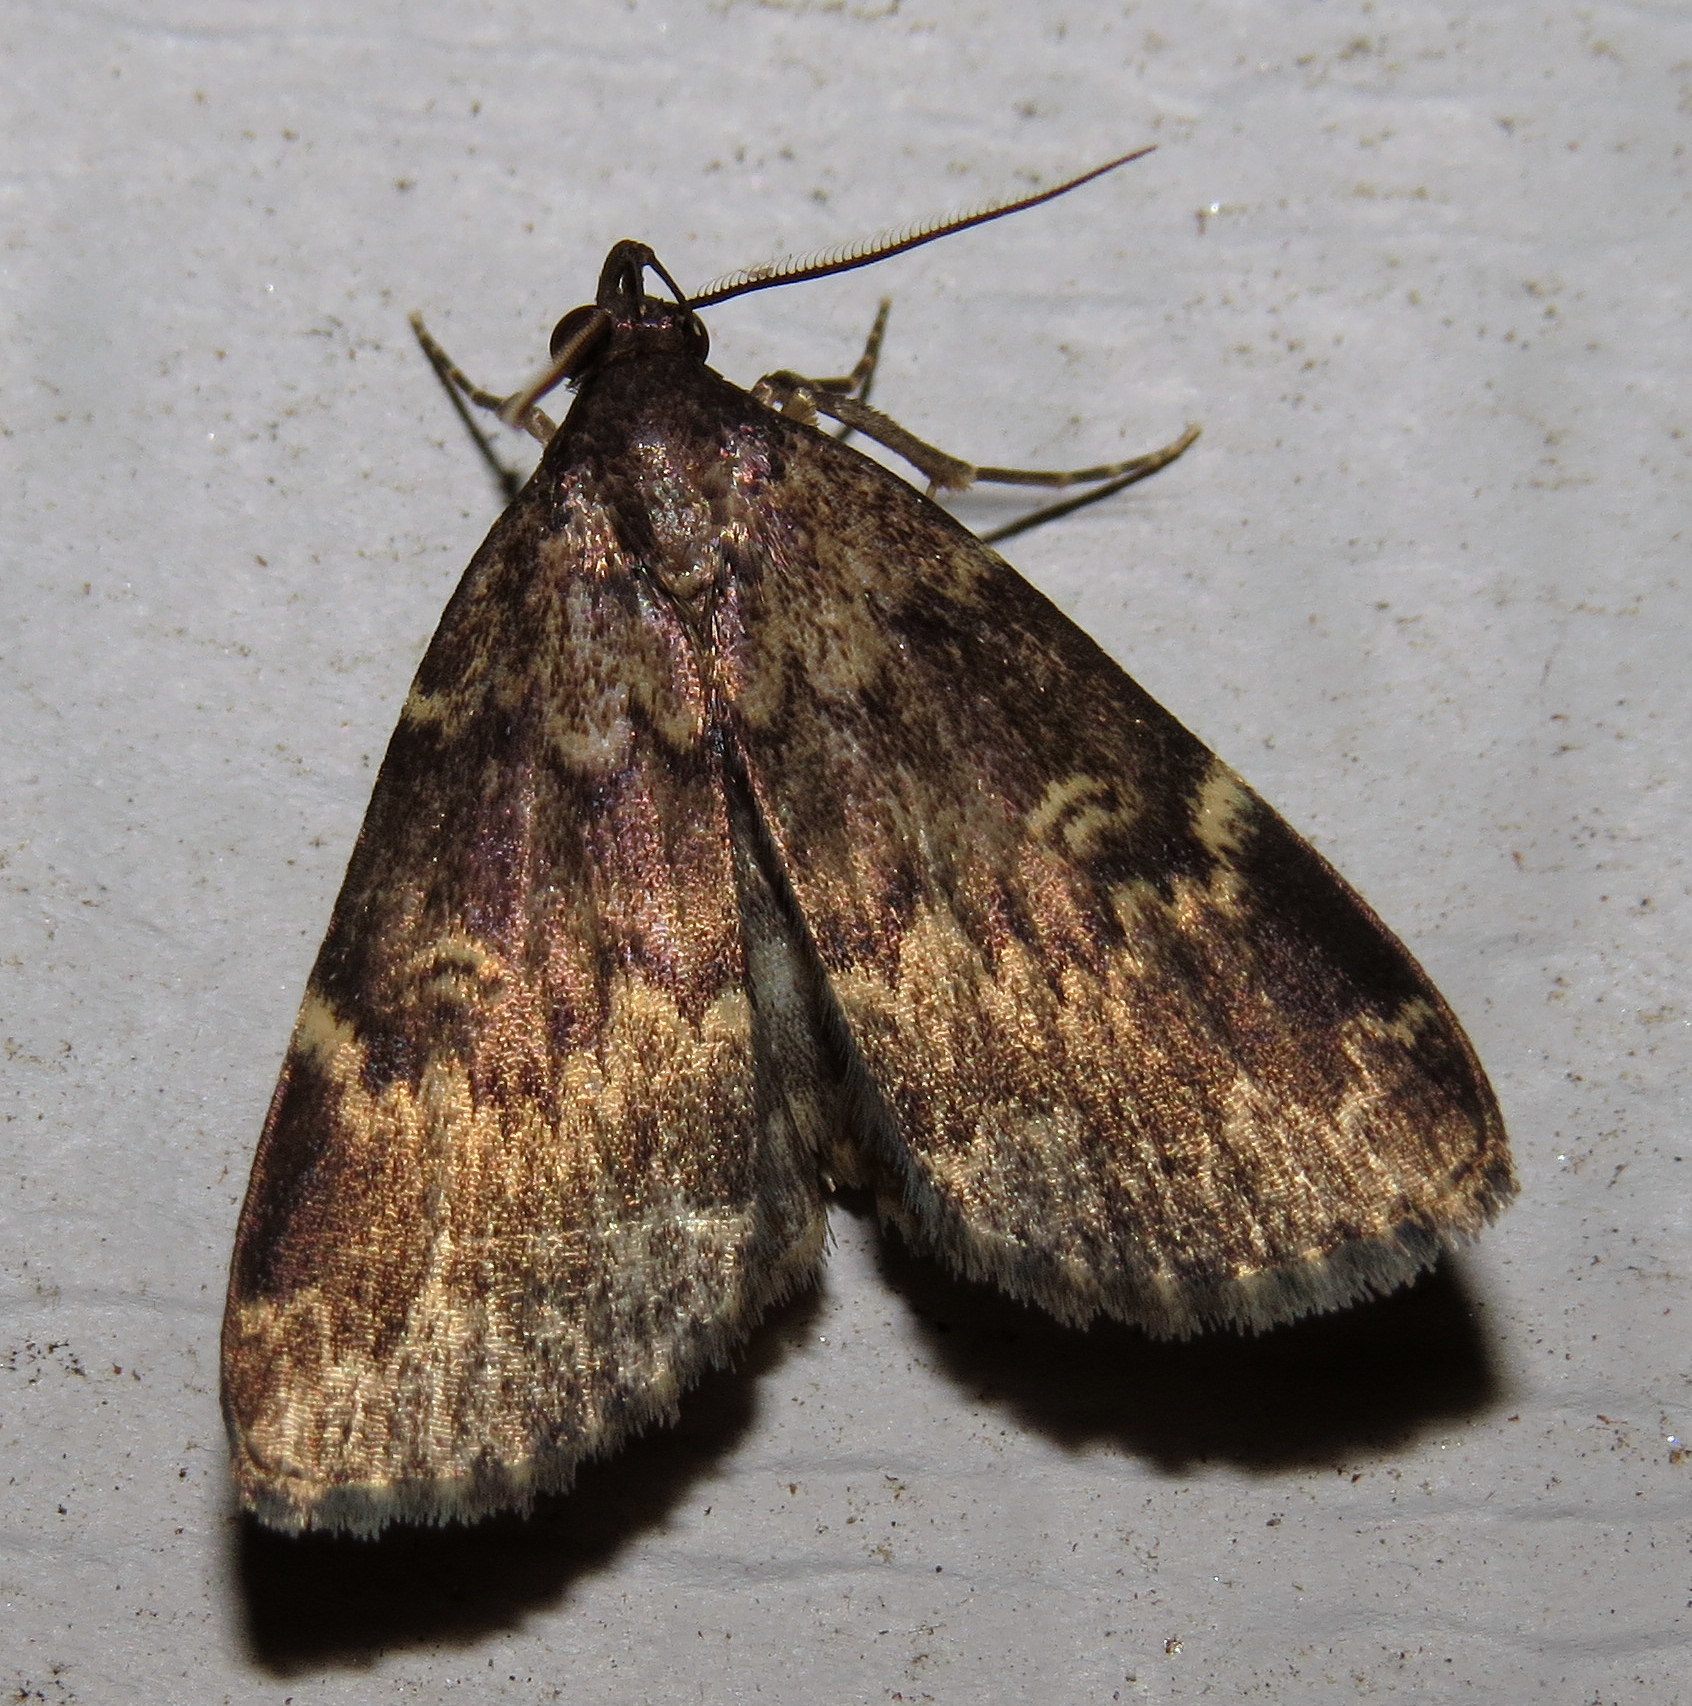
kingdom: Animalia
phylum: Arthropoda
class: Insecta
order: Lepidoptera
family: Erebidae
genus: Idia
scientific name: Idia lubricalis
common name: Twin-striped tabby
